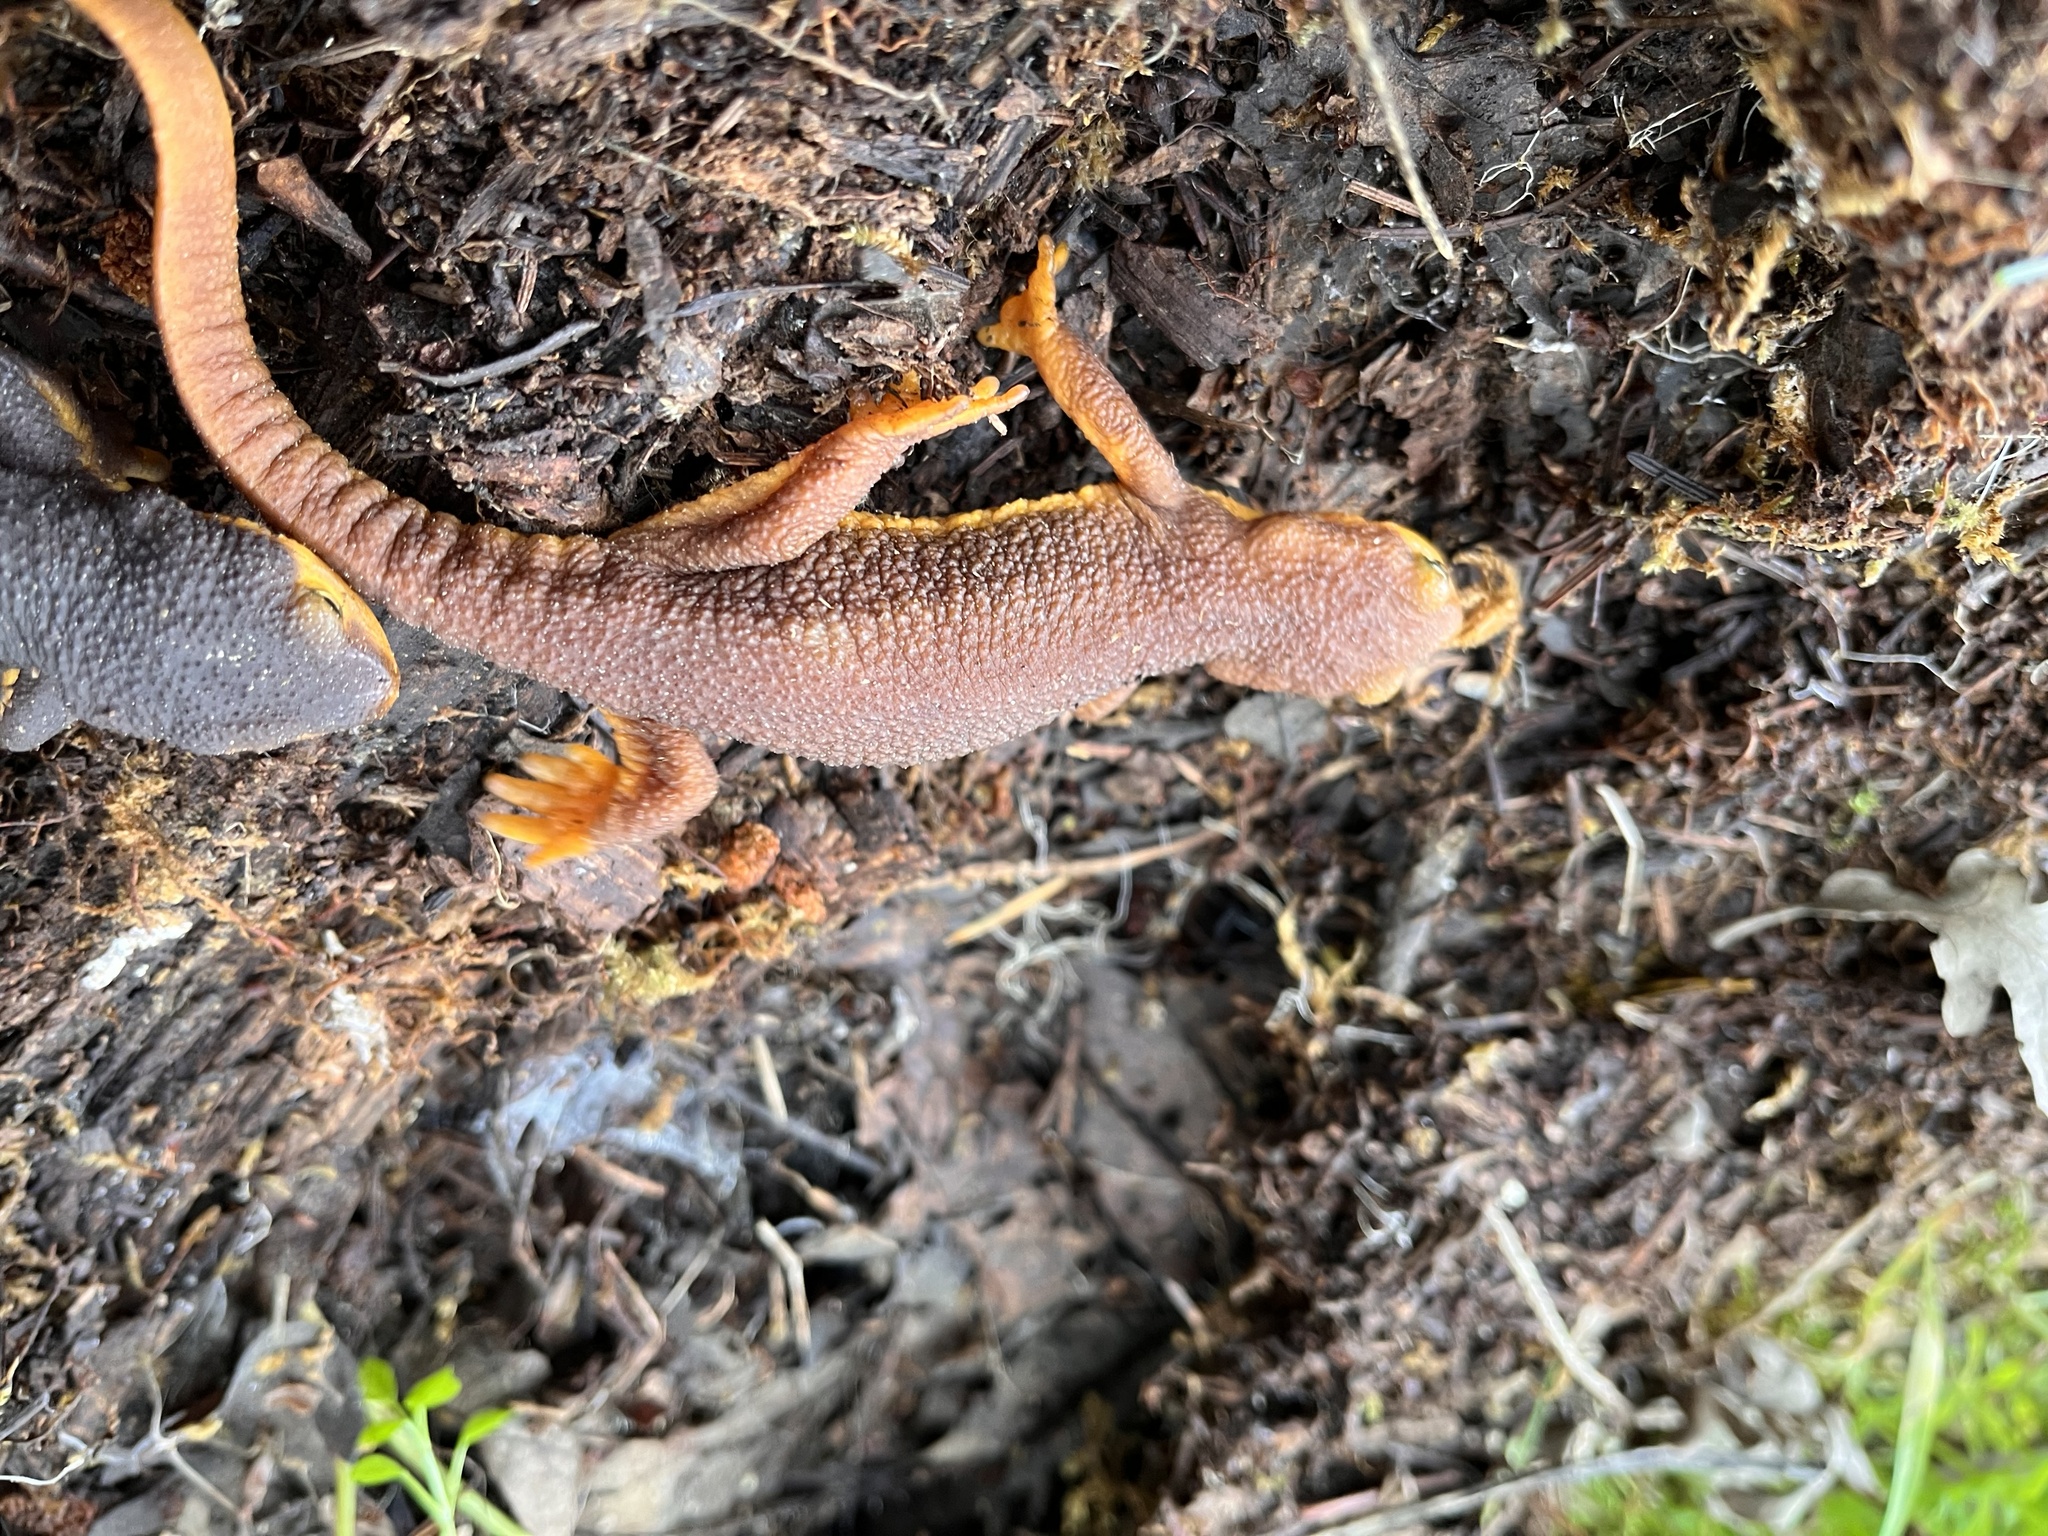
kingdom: Animalia
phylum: Chordata
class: Amphibia
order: Caudata
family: Salamandridae
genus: Taricha
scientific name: Taricha torosa
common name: California newt
